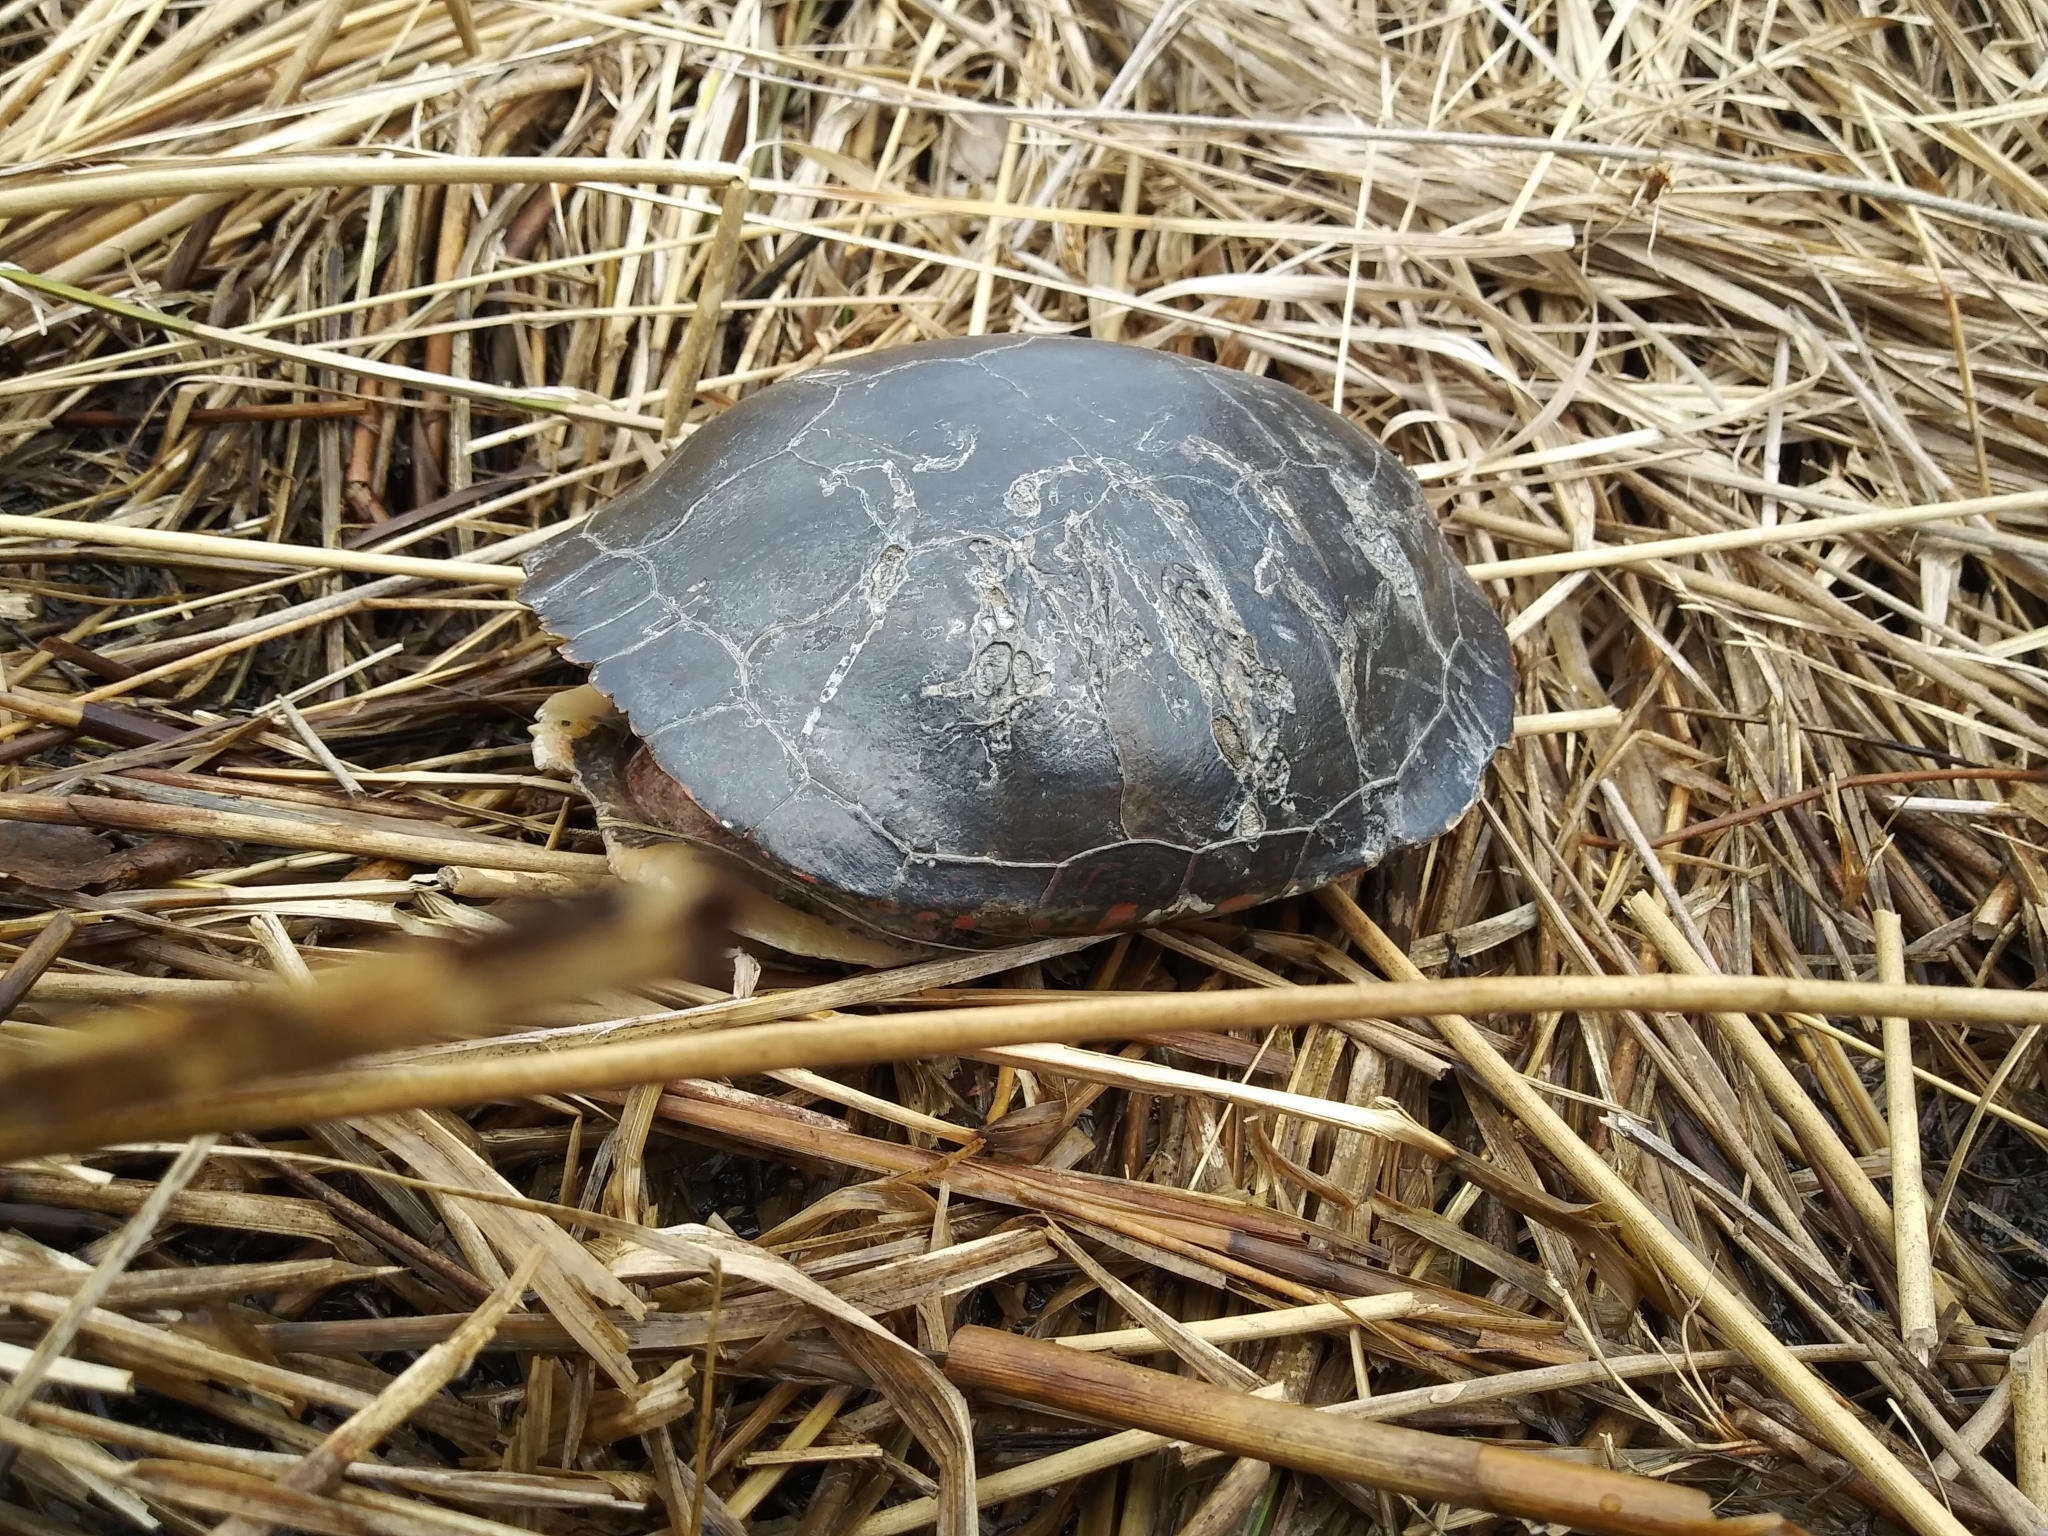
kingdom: Animalia
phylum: Chordata
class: Testudines
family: Emydidae
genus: Chrysemys
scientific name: Chrysemys picta
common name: Painted turtle
